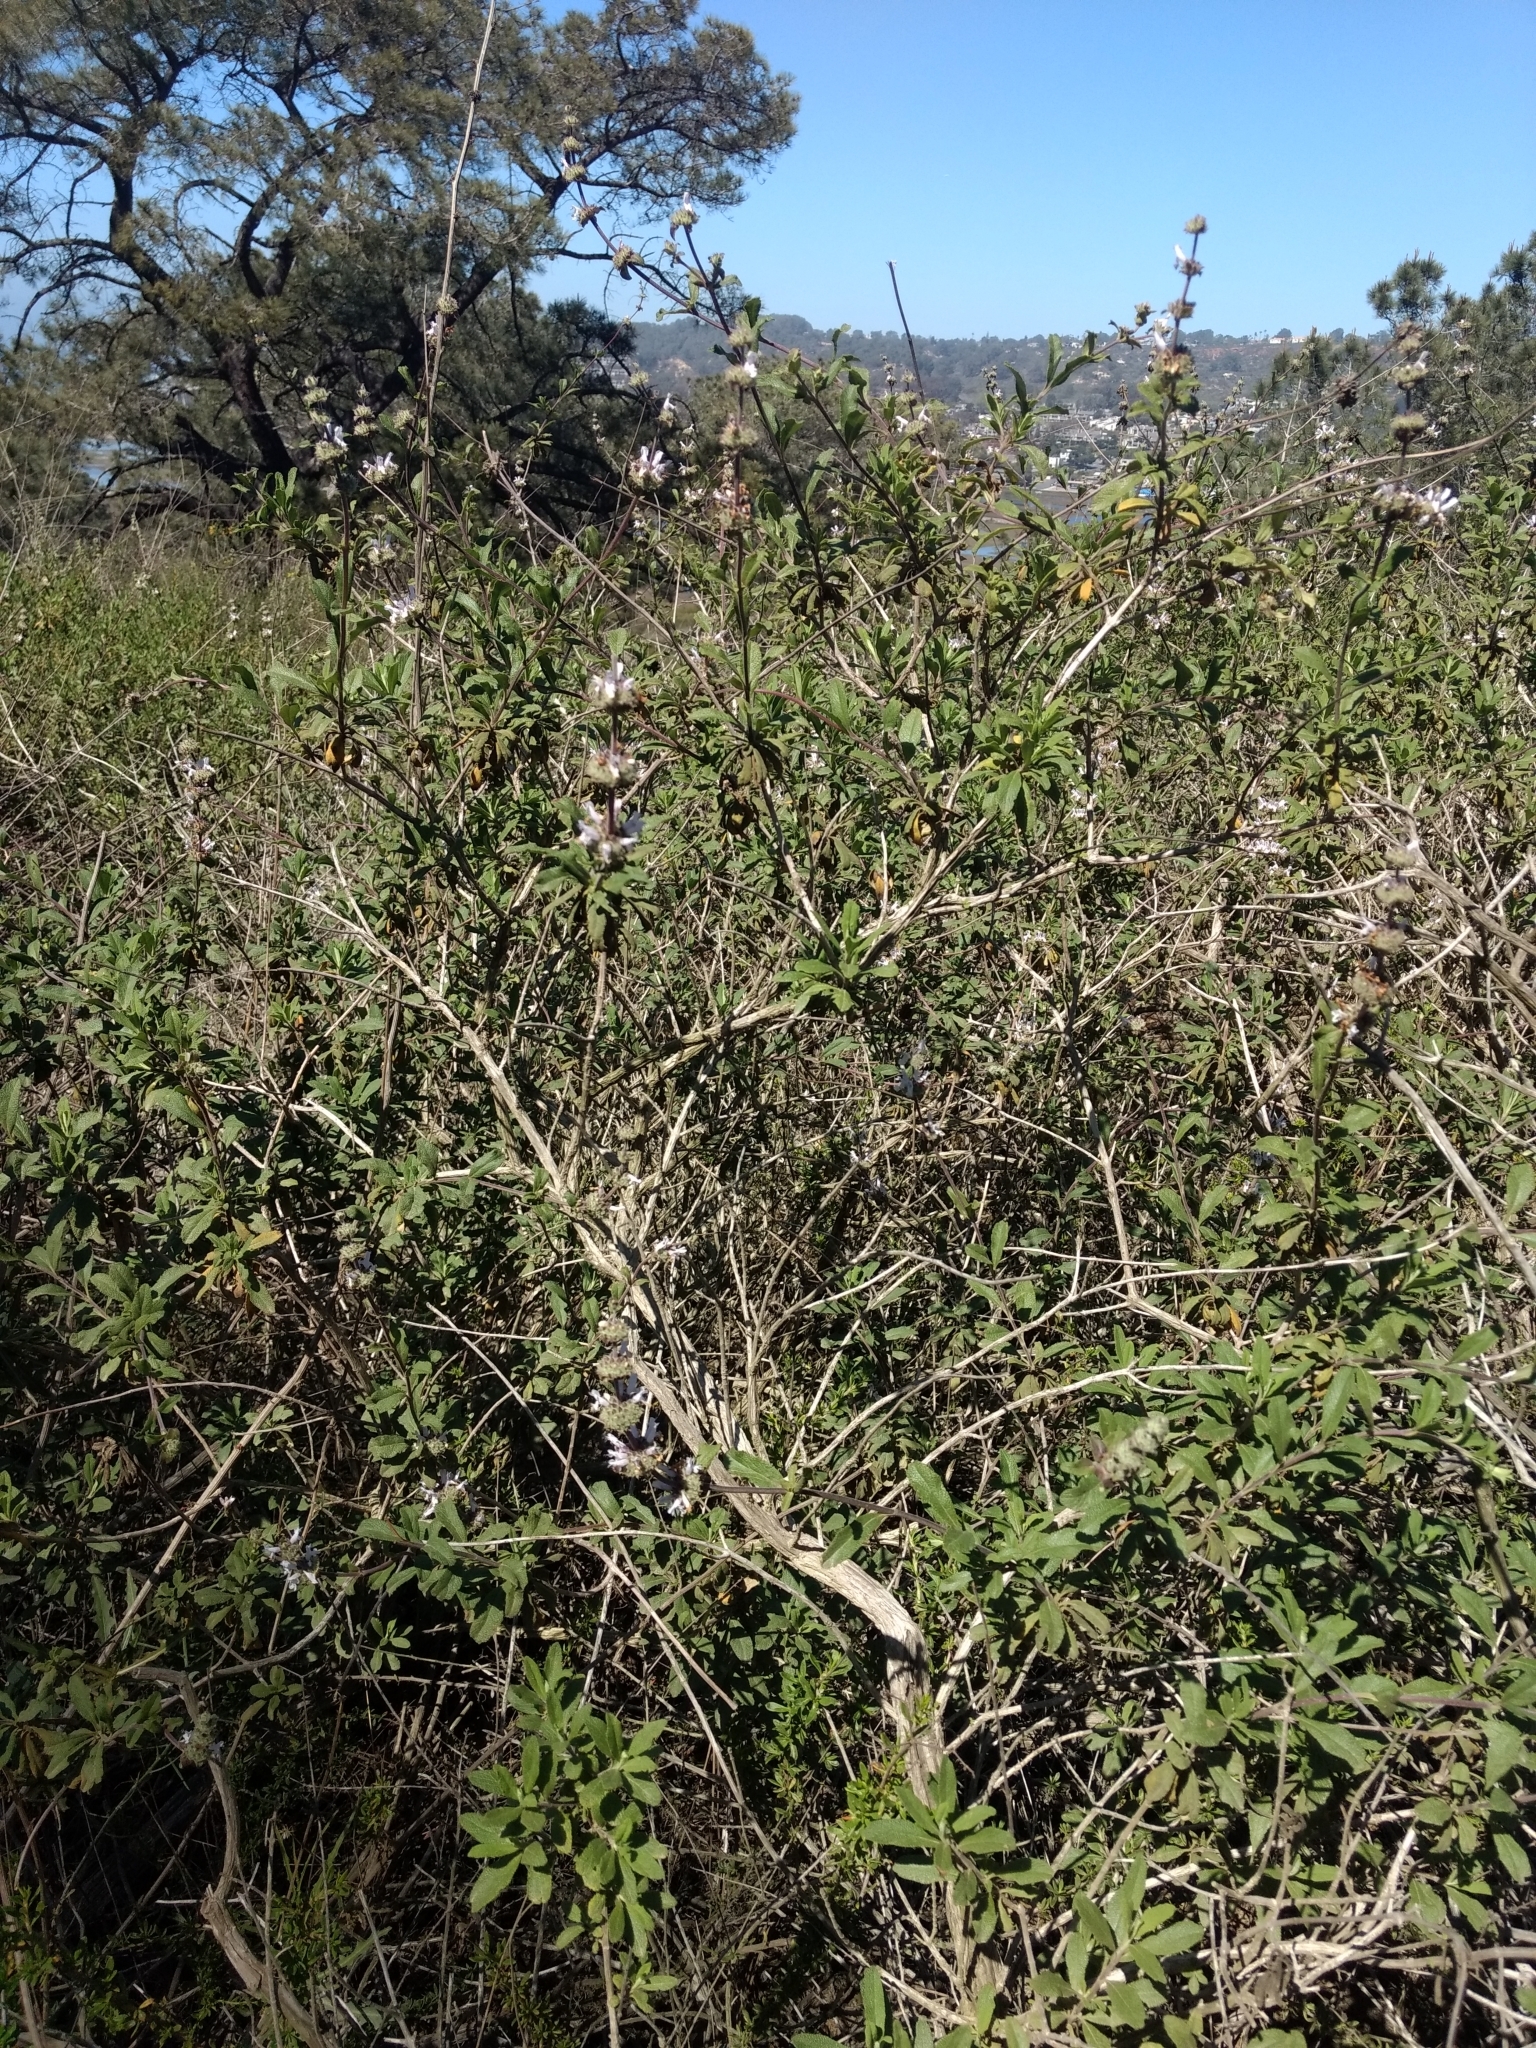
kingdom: Plantae
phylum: Tracheophyta
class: Magnoliopsida
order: Lamiales
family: Lamiaceae
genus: Salvia
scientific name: Salvia mellifera
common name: Black sage
